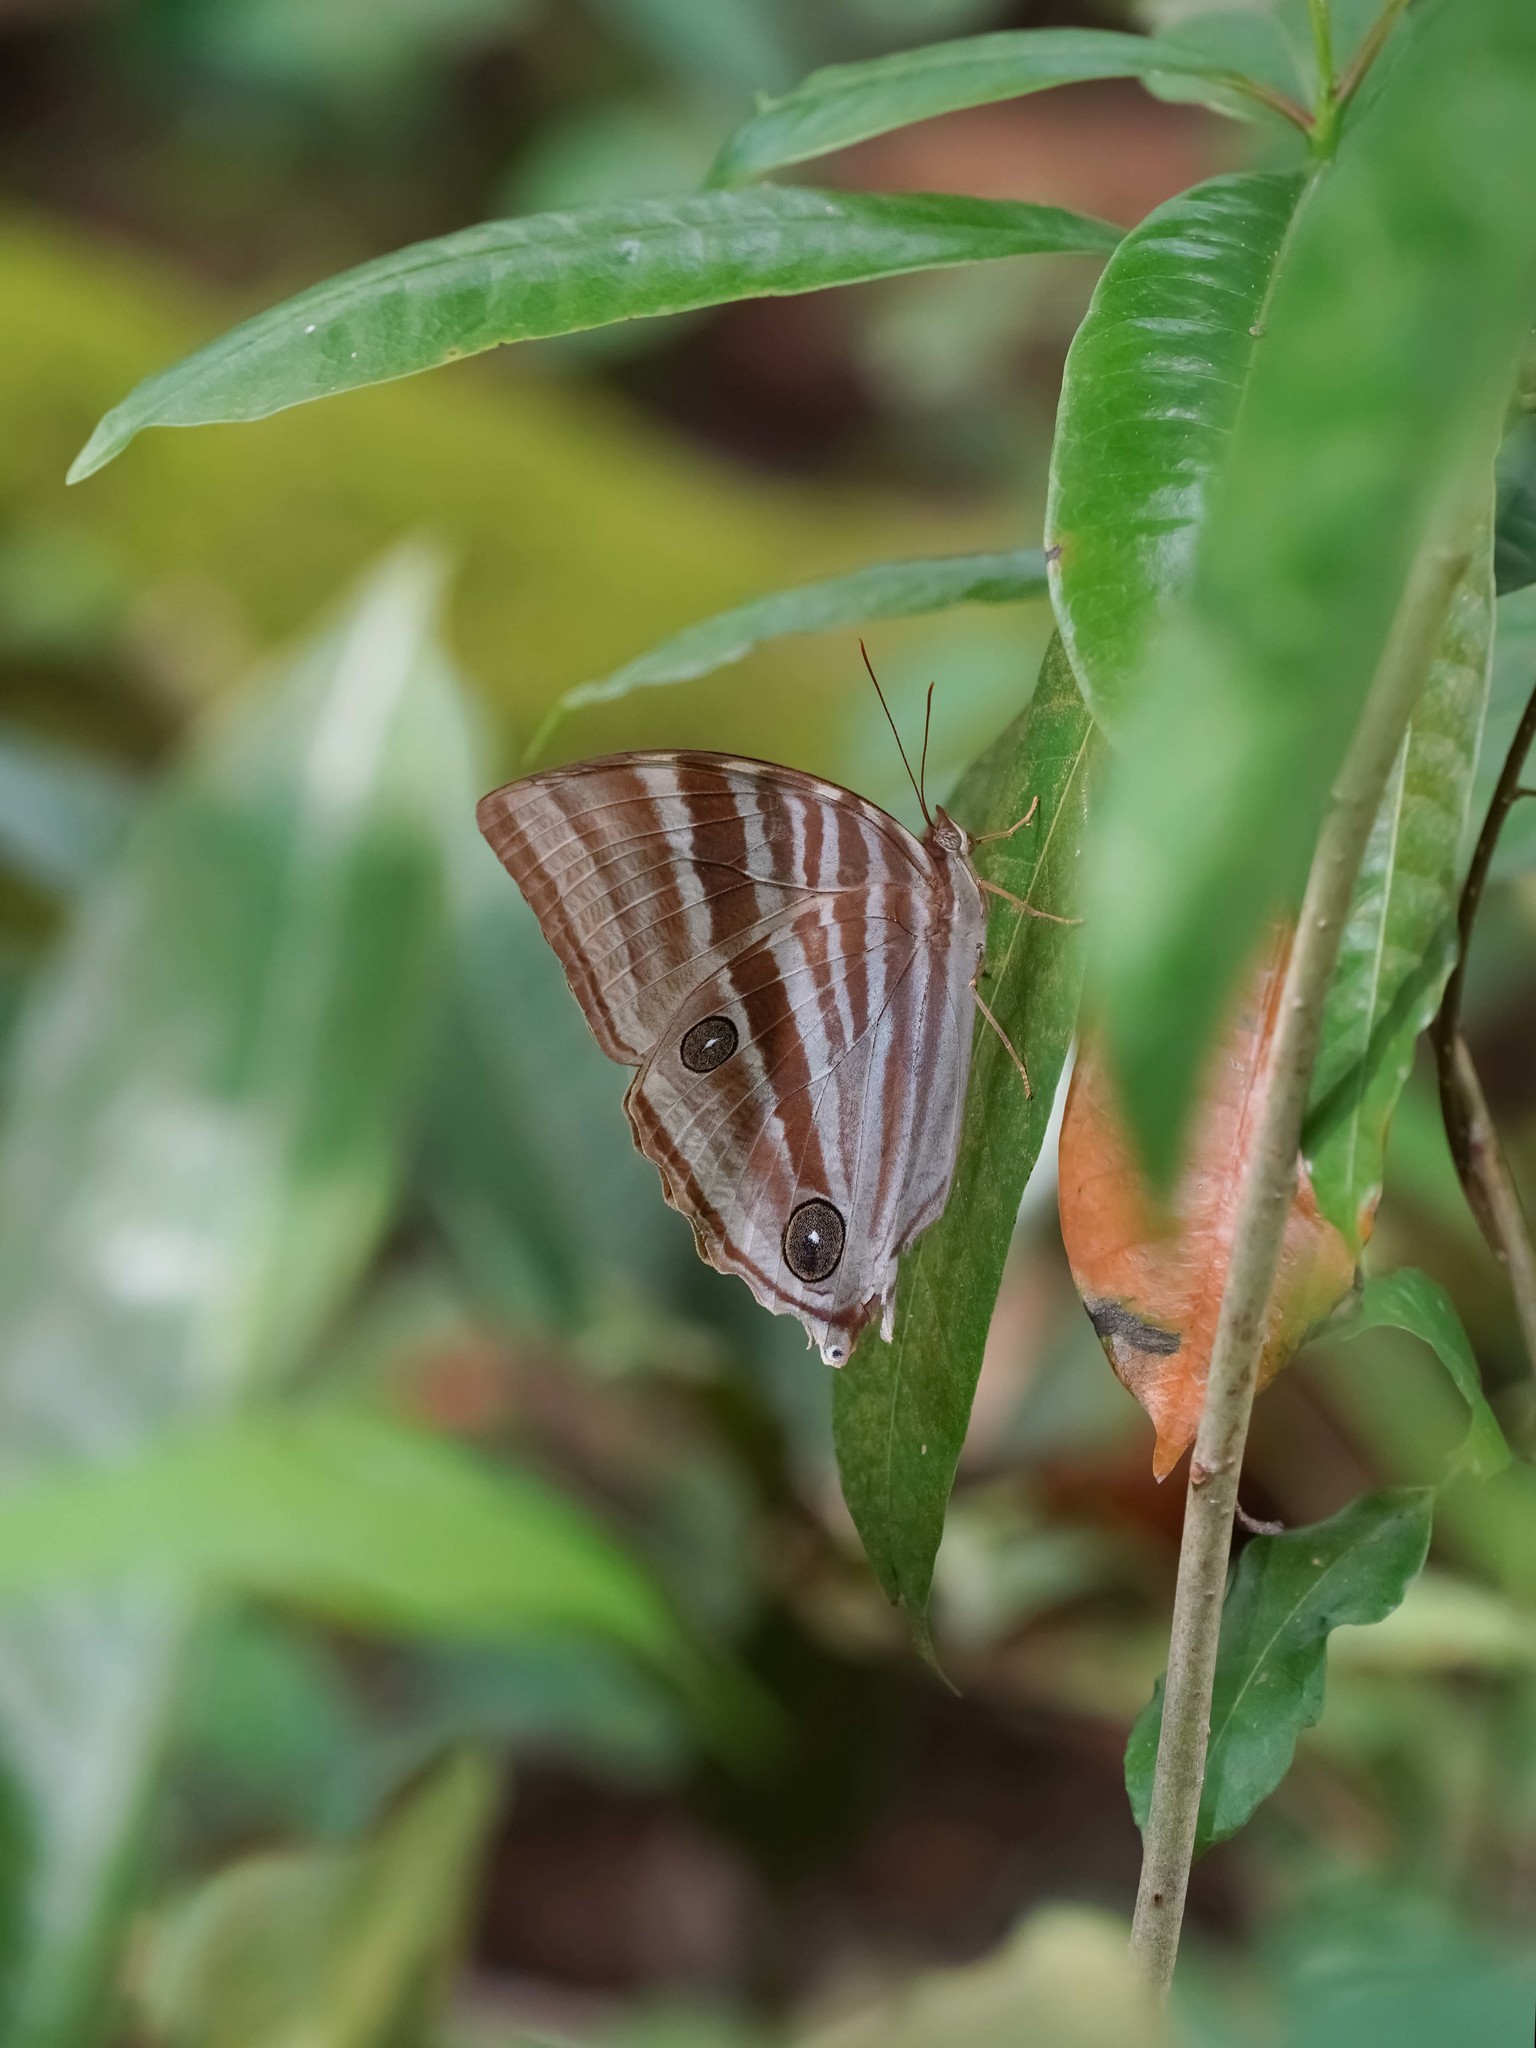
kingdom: Animalia
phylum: Arthropoda
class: Insecta
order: Lepidoptera
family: Nymphalidae
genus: Amathusia
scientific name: Amathusia phidippus
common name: Palm king
